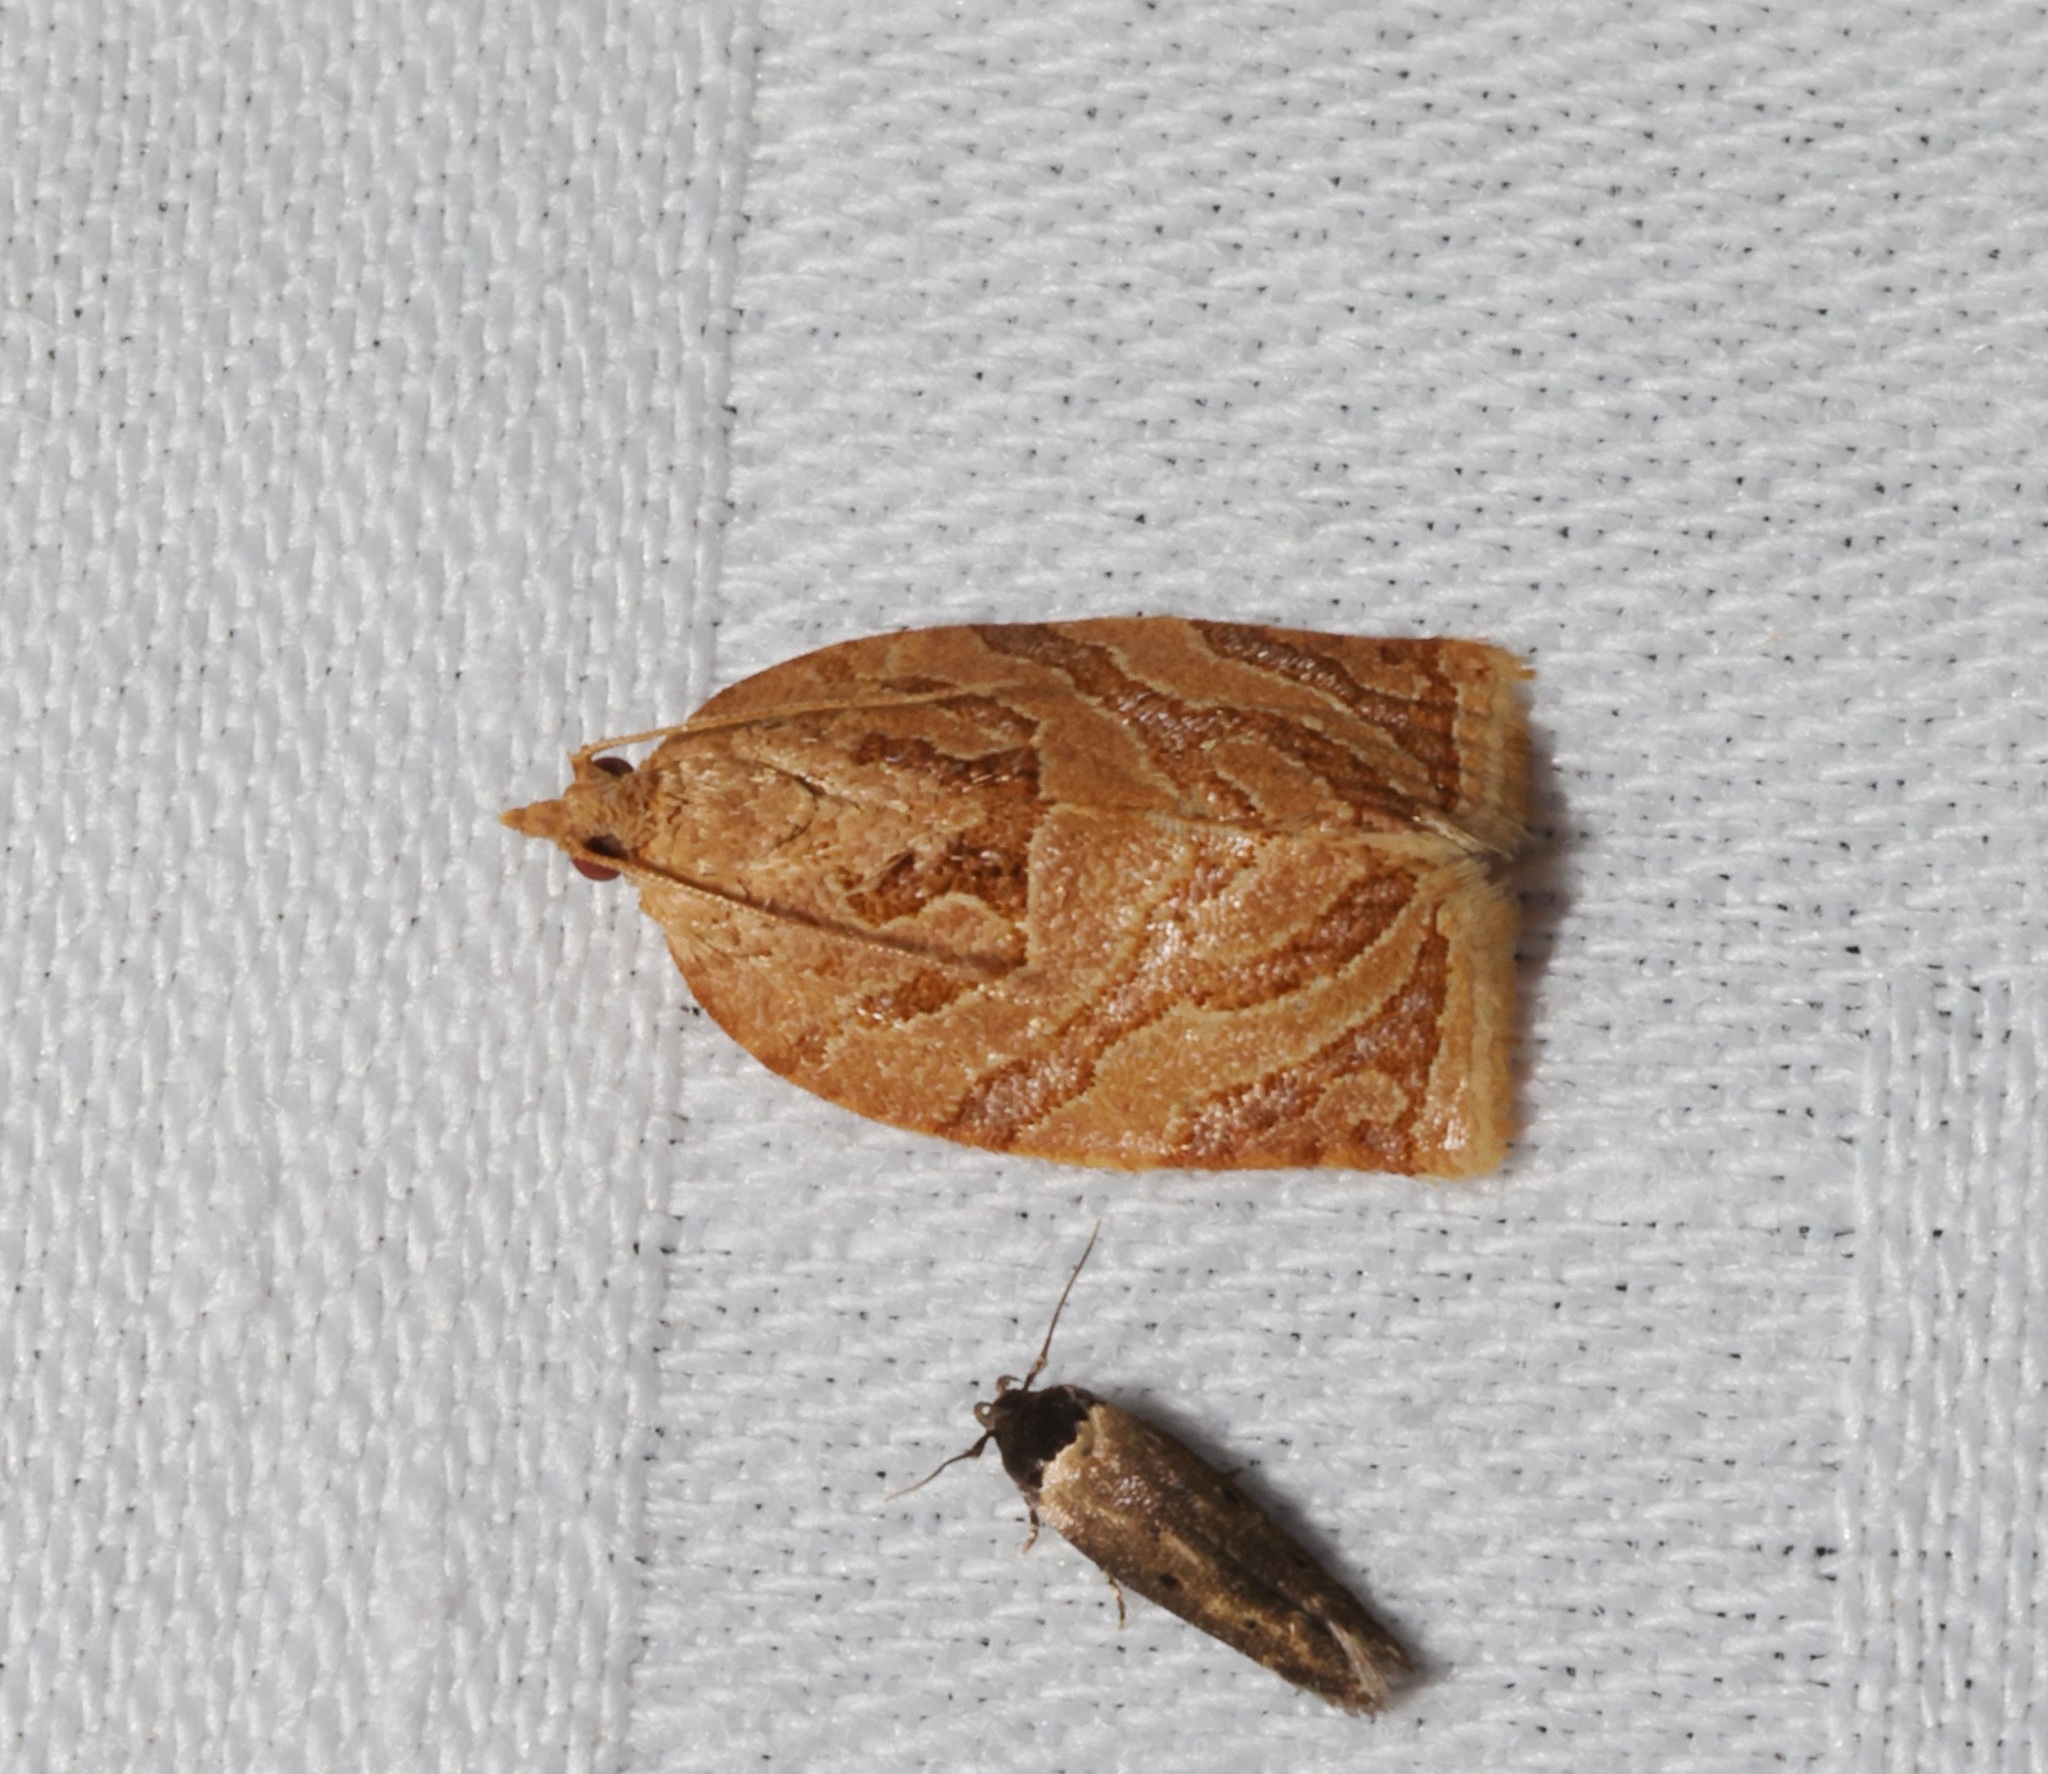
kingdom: Animalia
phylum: Arthropoda
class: Insecta
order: Lepidoptera
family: Tortricidae
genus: Adoxophyes
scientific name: Adoxophyes privatana
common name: Asian orchid tortrix
